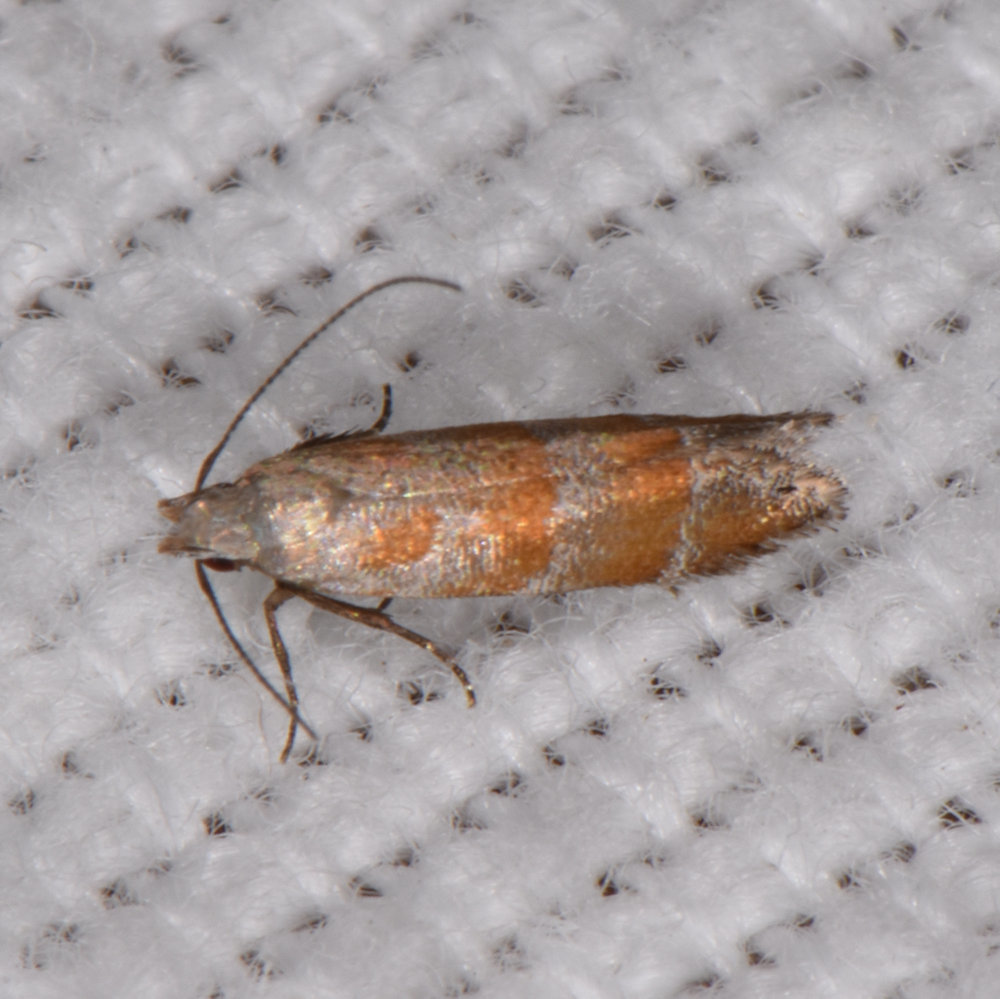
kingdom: Animalia
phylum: Arthropoda
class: Insecta
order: Lepidoptera
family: Gelechiidae
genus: Battaristis
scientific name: Battaristis vittella
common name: Orange stripe-backed moth
